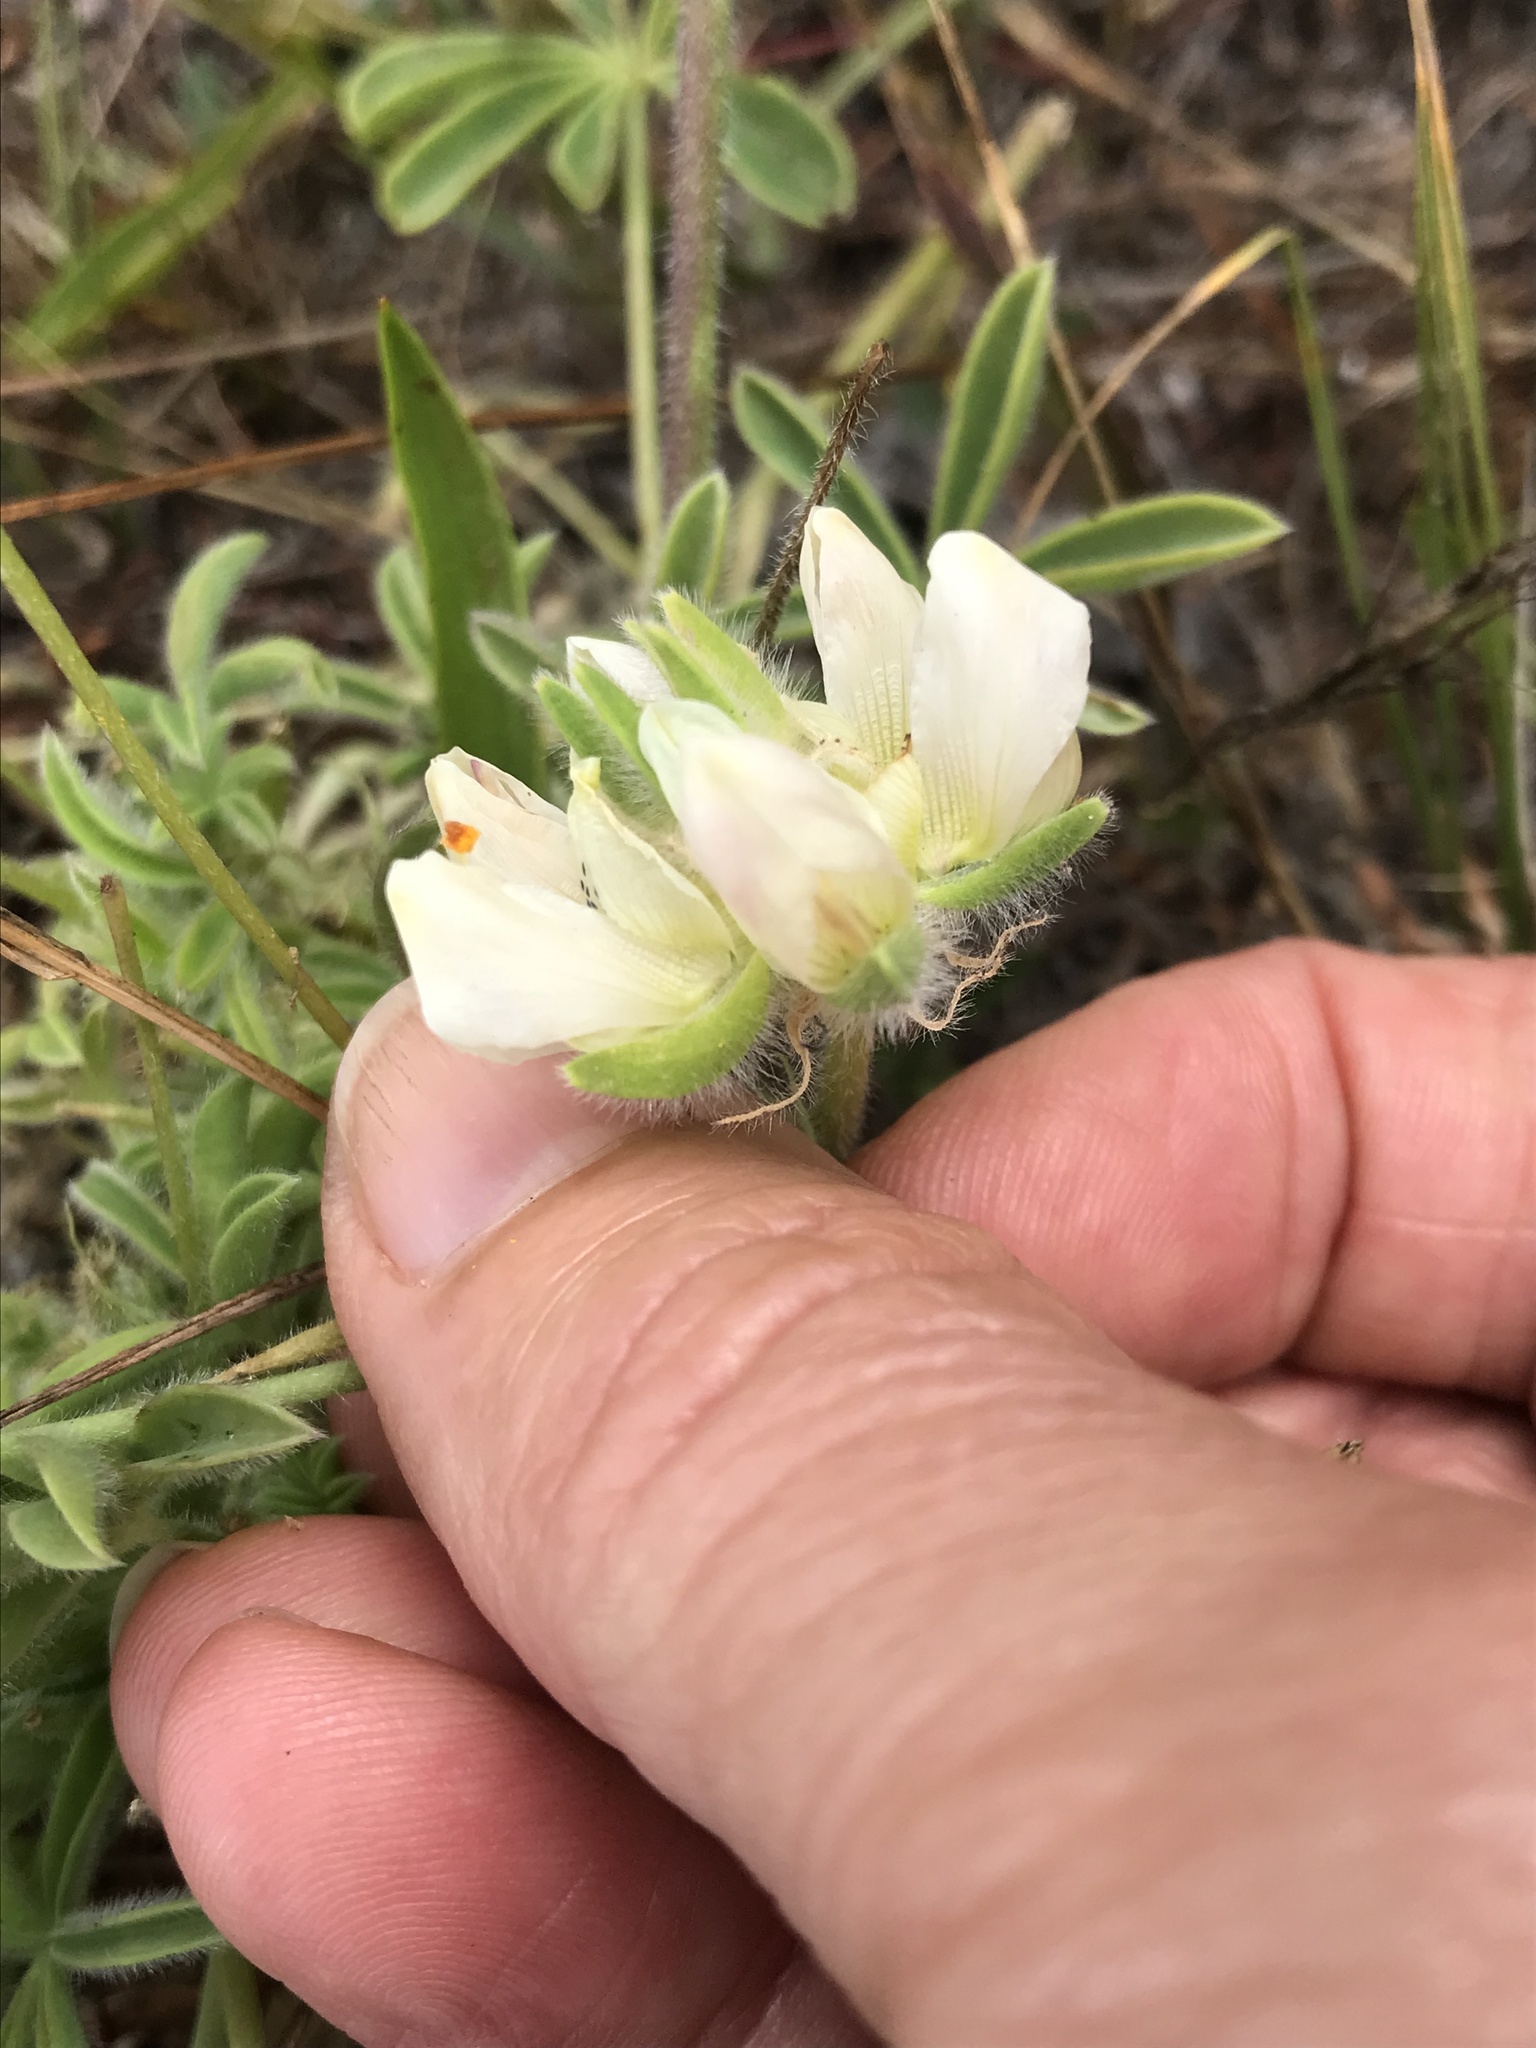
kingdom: Plantae
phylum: Tracheophyta
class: Magnoliopsida
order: Fabales
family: Fabaceae
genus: Lupinus
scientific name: Lupinus microcarpus
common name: Chick lupine
